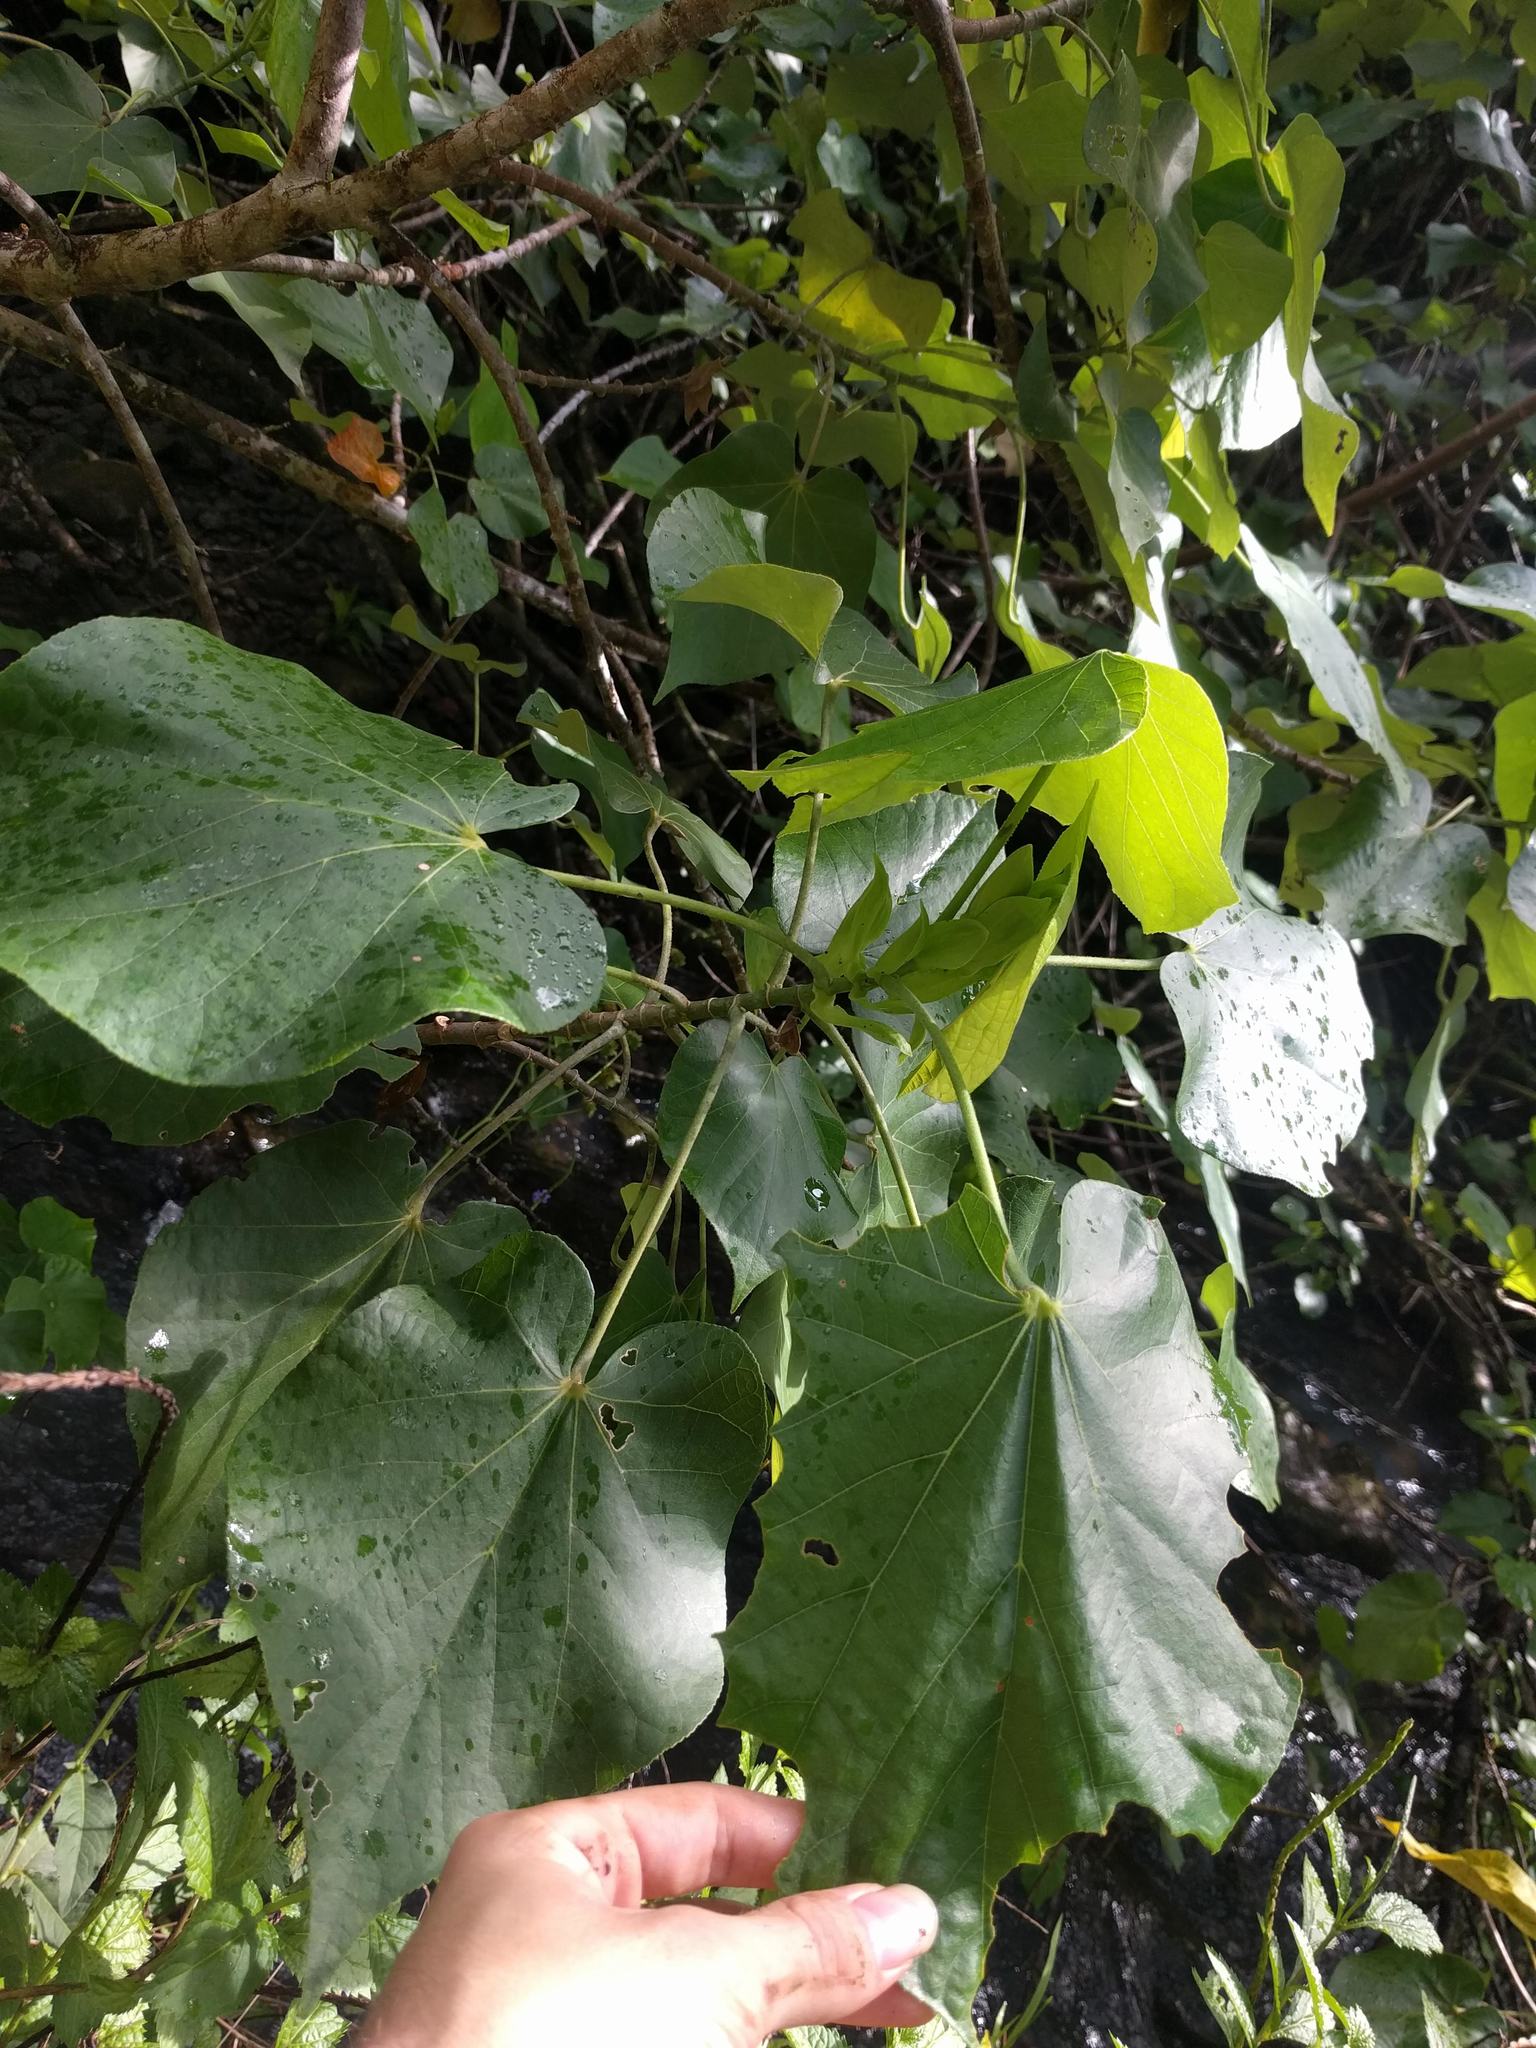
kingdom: Plantae
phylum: Tracheophyta
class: Magnoliopsida
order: Malvales
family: Malvaceae
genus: Talipariti
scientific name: Talipariti tiliaceum
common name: Sea hibiscus
